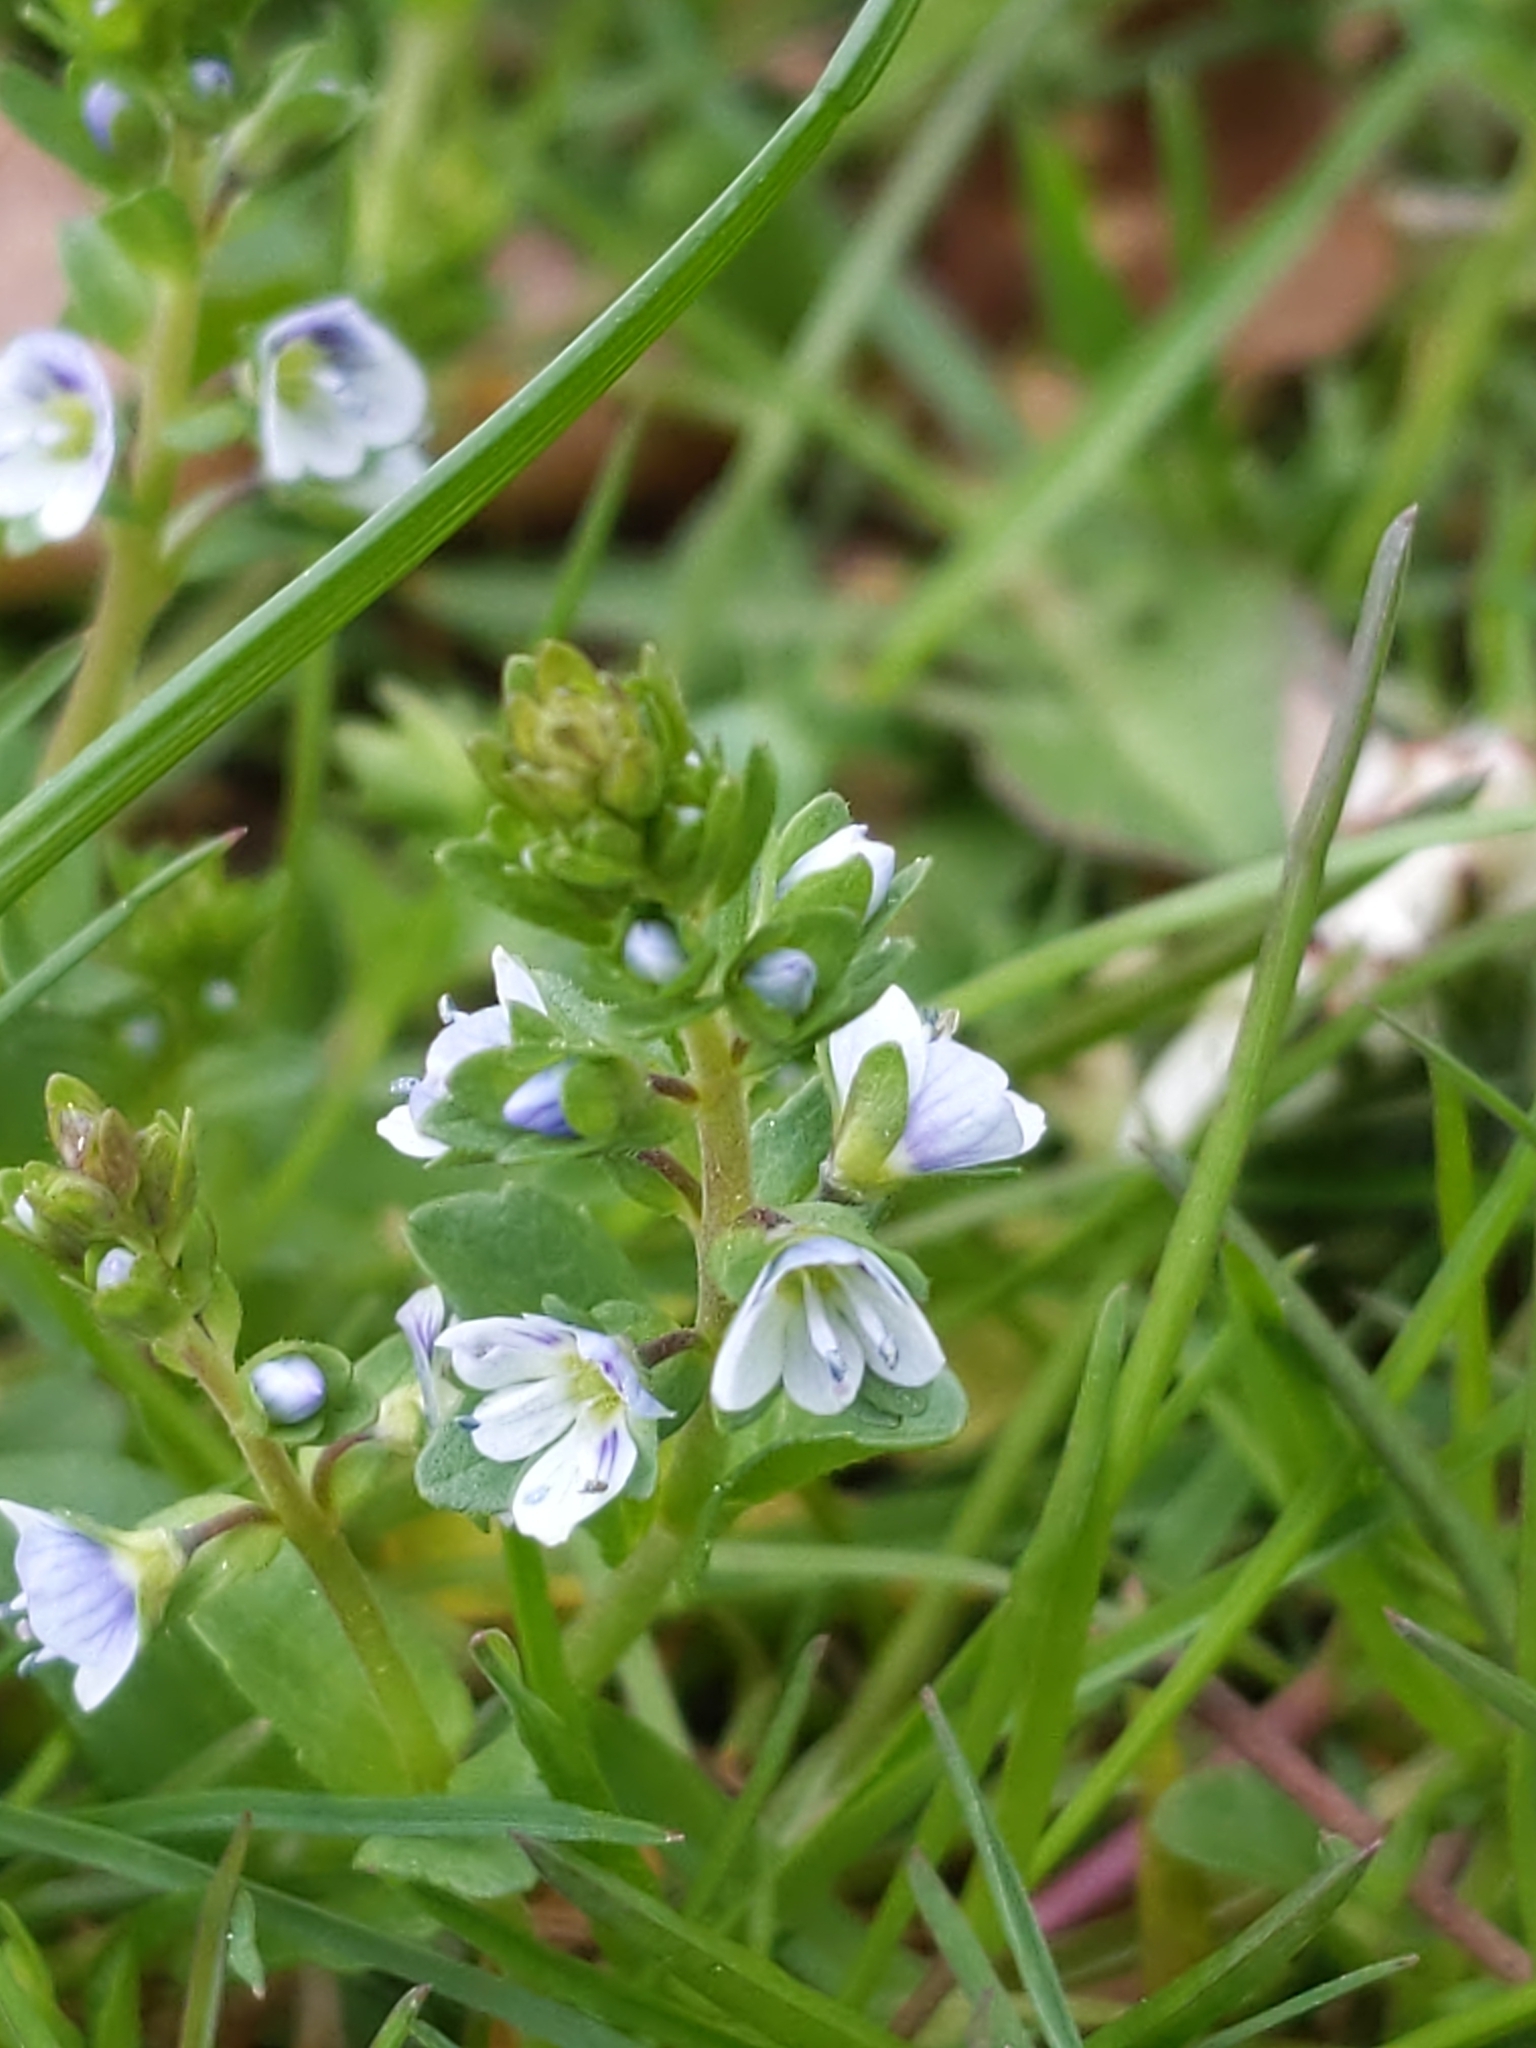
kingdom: Plantae
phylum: Tracheophyta
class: Magnoliopsida
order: Lamiales
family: Plantaginaceae
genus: Veronica
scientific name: Veronica serpyllifolia
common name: Thyme-leaved speedwell
